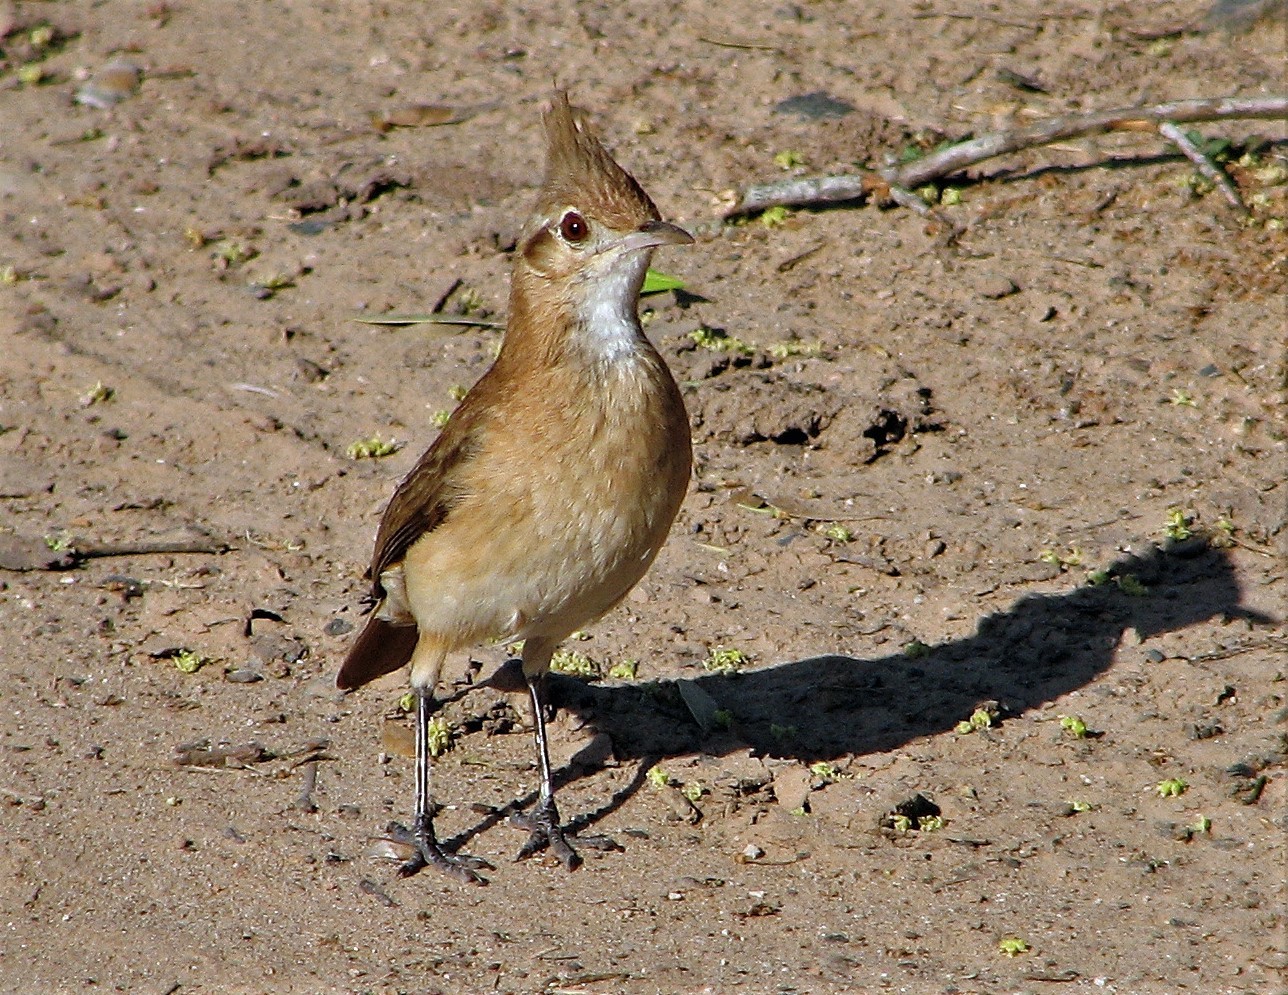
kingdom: Animalia
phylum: Chordata
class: Aves
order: Passeriformes
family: Furnariidae
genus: Furnarius
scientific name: Furnarius cristatus
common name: Crested hornero
